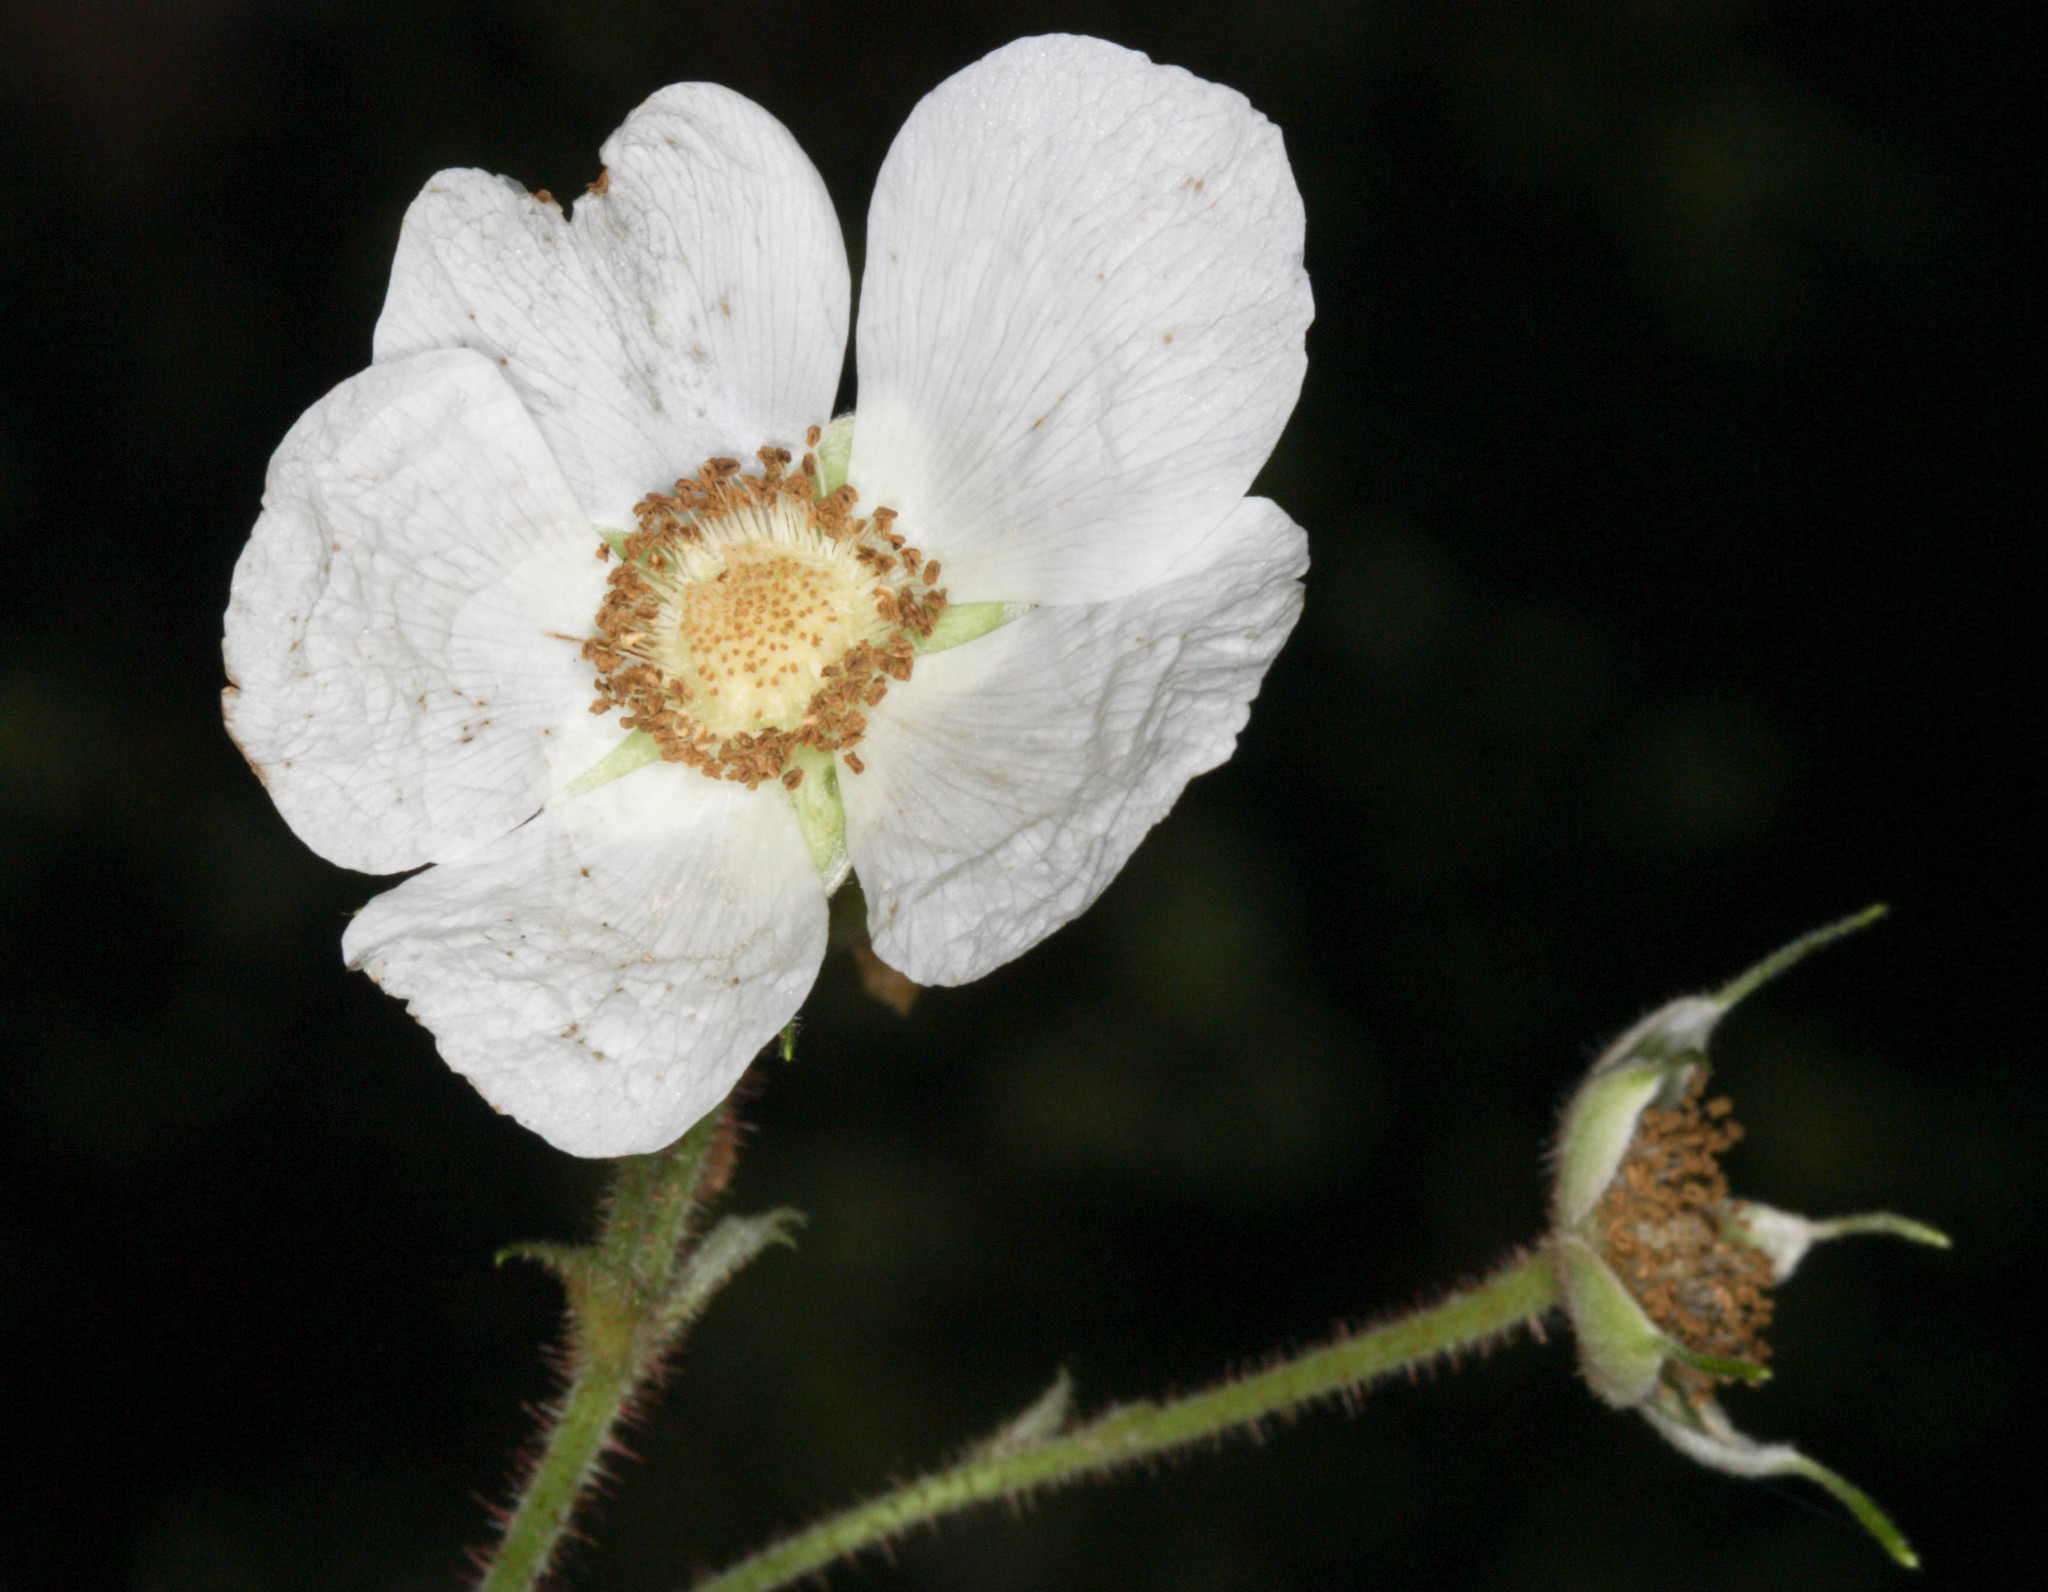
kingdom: Plantae
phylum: Tracheophyta
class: Magnoliopsida
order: Rosales
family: Rosaceae
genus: Rubus
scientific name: Rubus parviflorus
